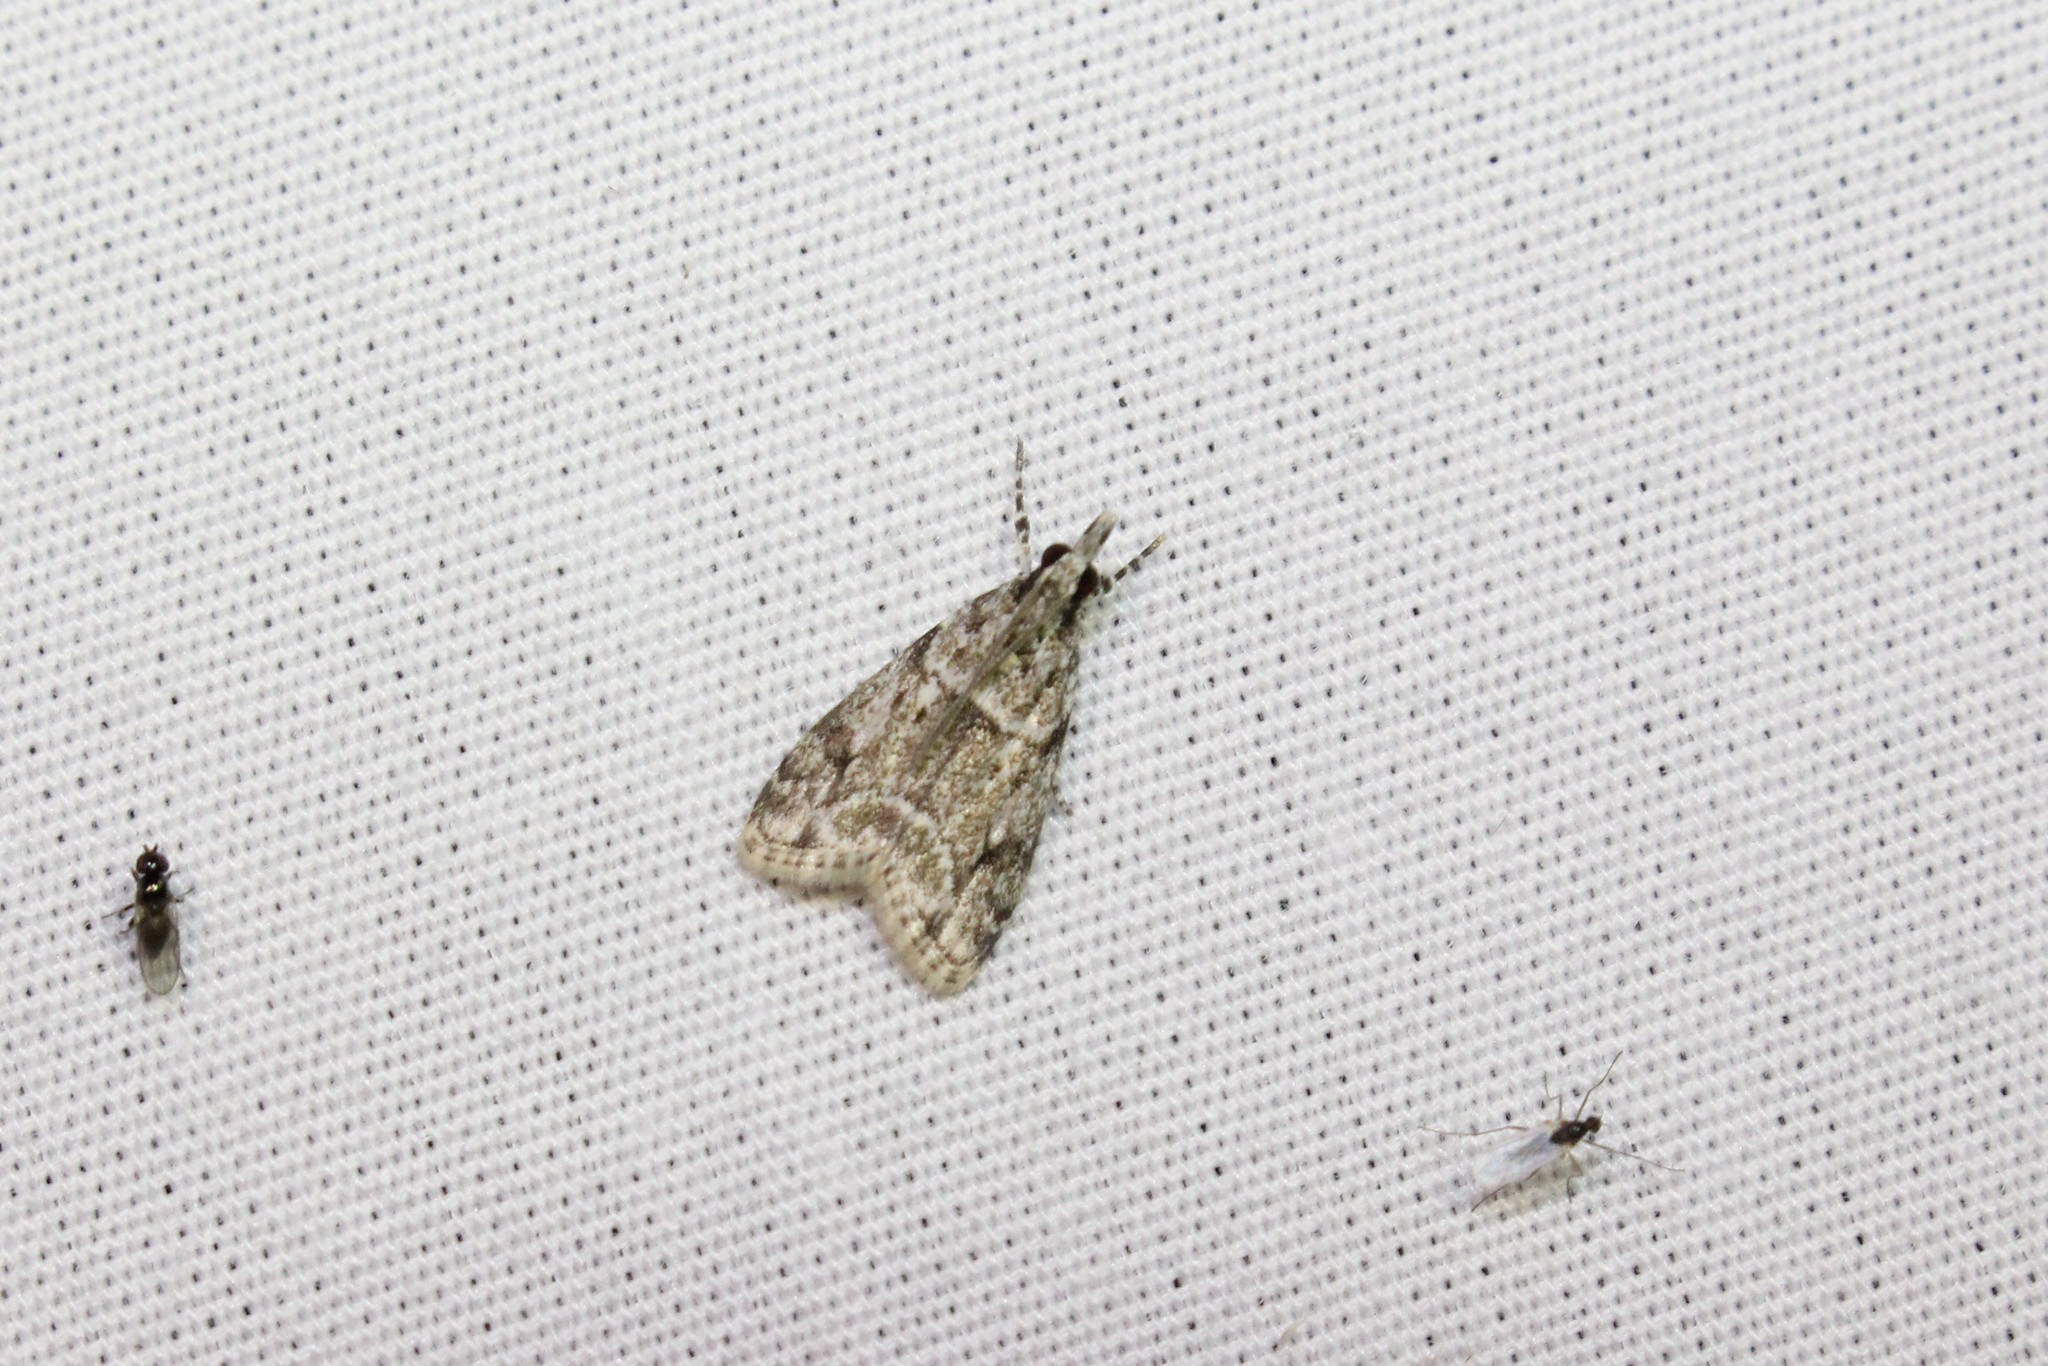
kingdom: Animalia
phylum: Arthropoda
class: Insecta
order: Lepidoptera
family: Crambidae
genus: Eudonia
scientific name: Eudonia heterosalis
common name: Mcdunnough's eudonia
